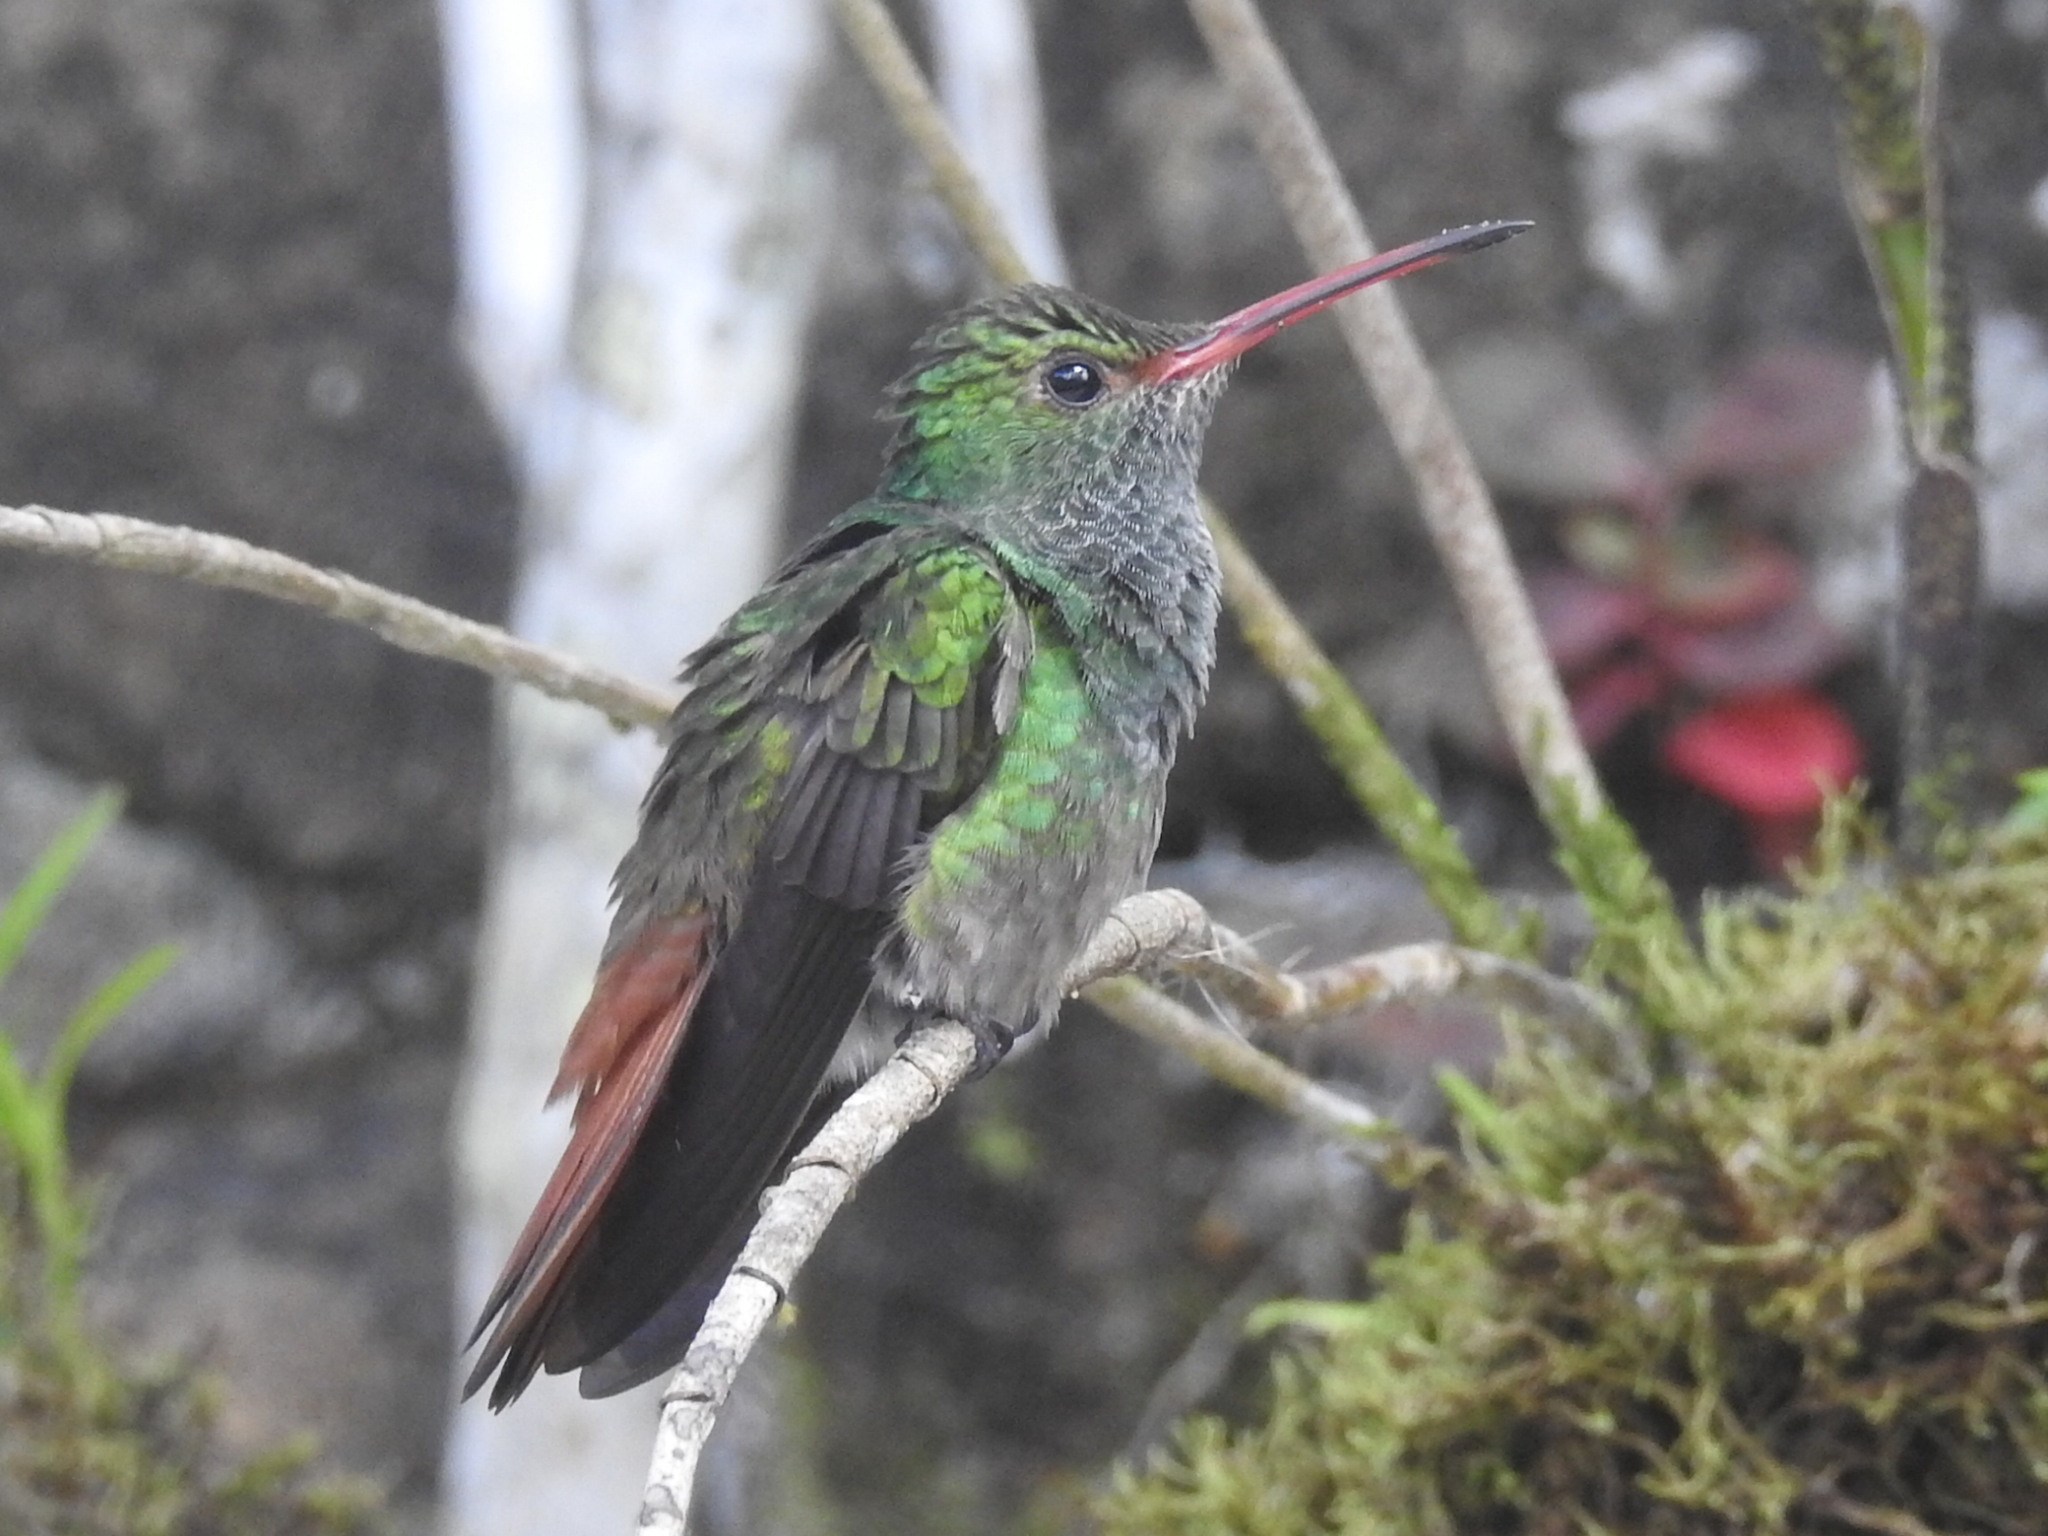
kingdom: Animalia
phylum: Chordata
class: Aves
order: Apodiformes
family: Trochilidae
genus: Amazilia
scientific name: Amazilia tzacatl
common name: Rufous-tailed hummingbird
